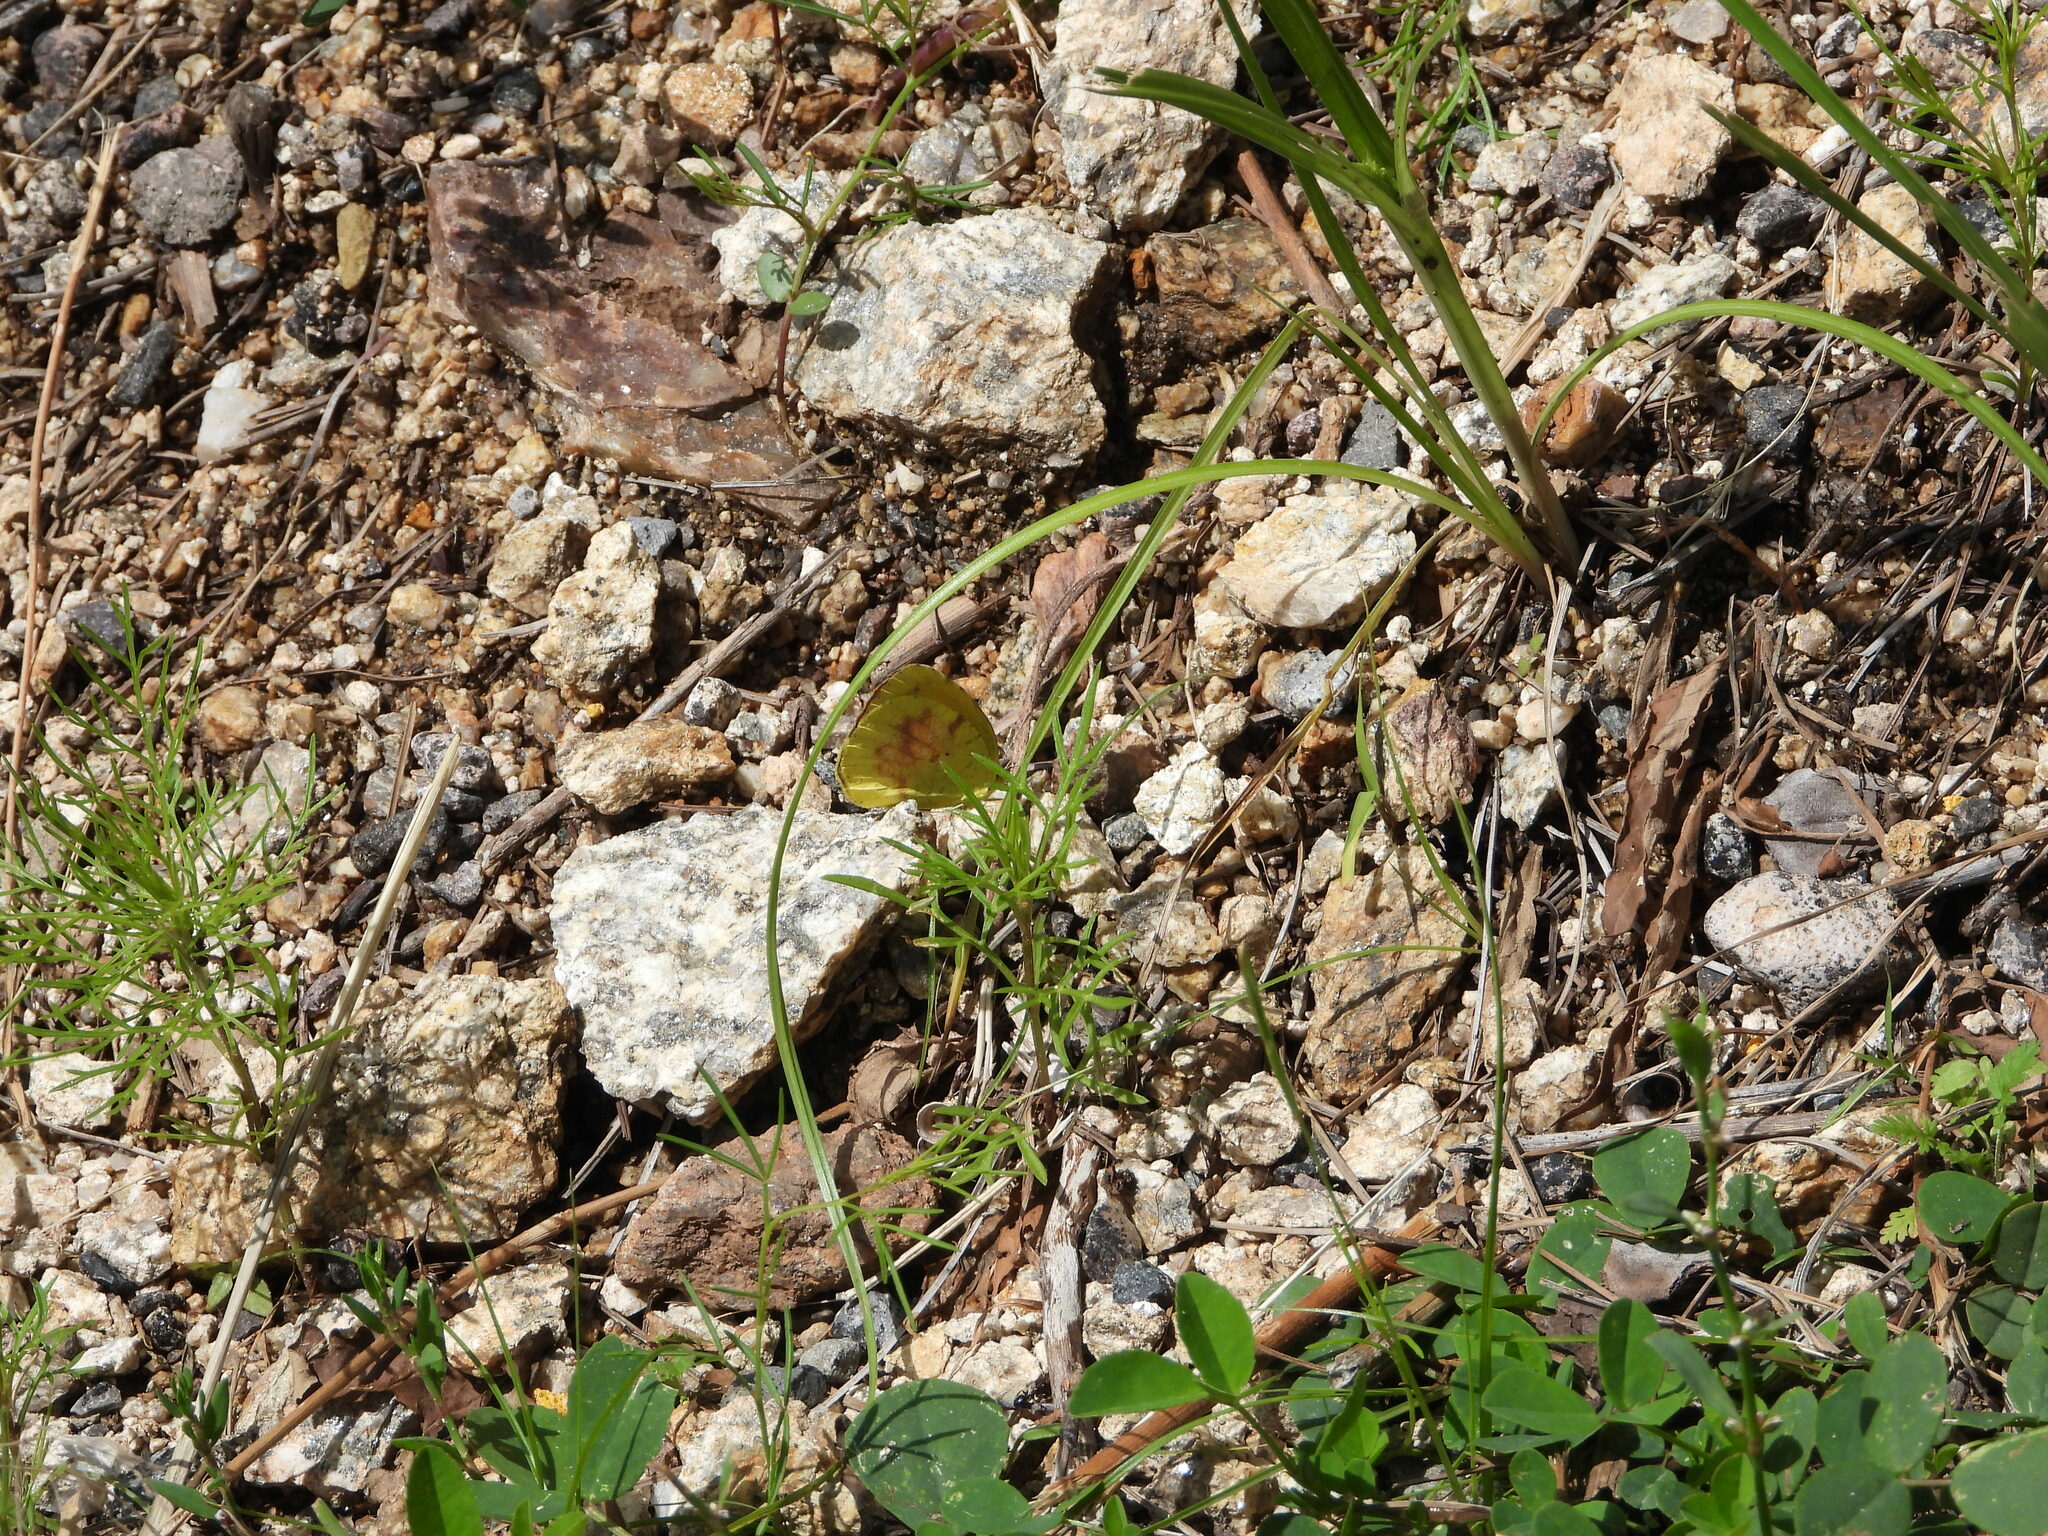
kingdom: Animalia
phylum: Arthropoda
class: Insecta
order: Lepidoptera
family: Pieridae
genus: Abaeis
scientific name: Abaeis nicippe
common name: Sleepy orange
